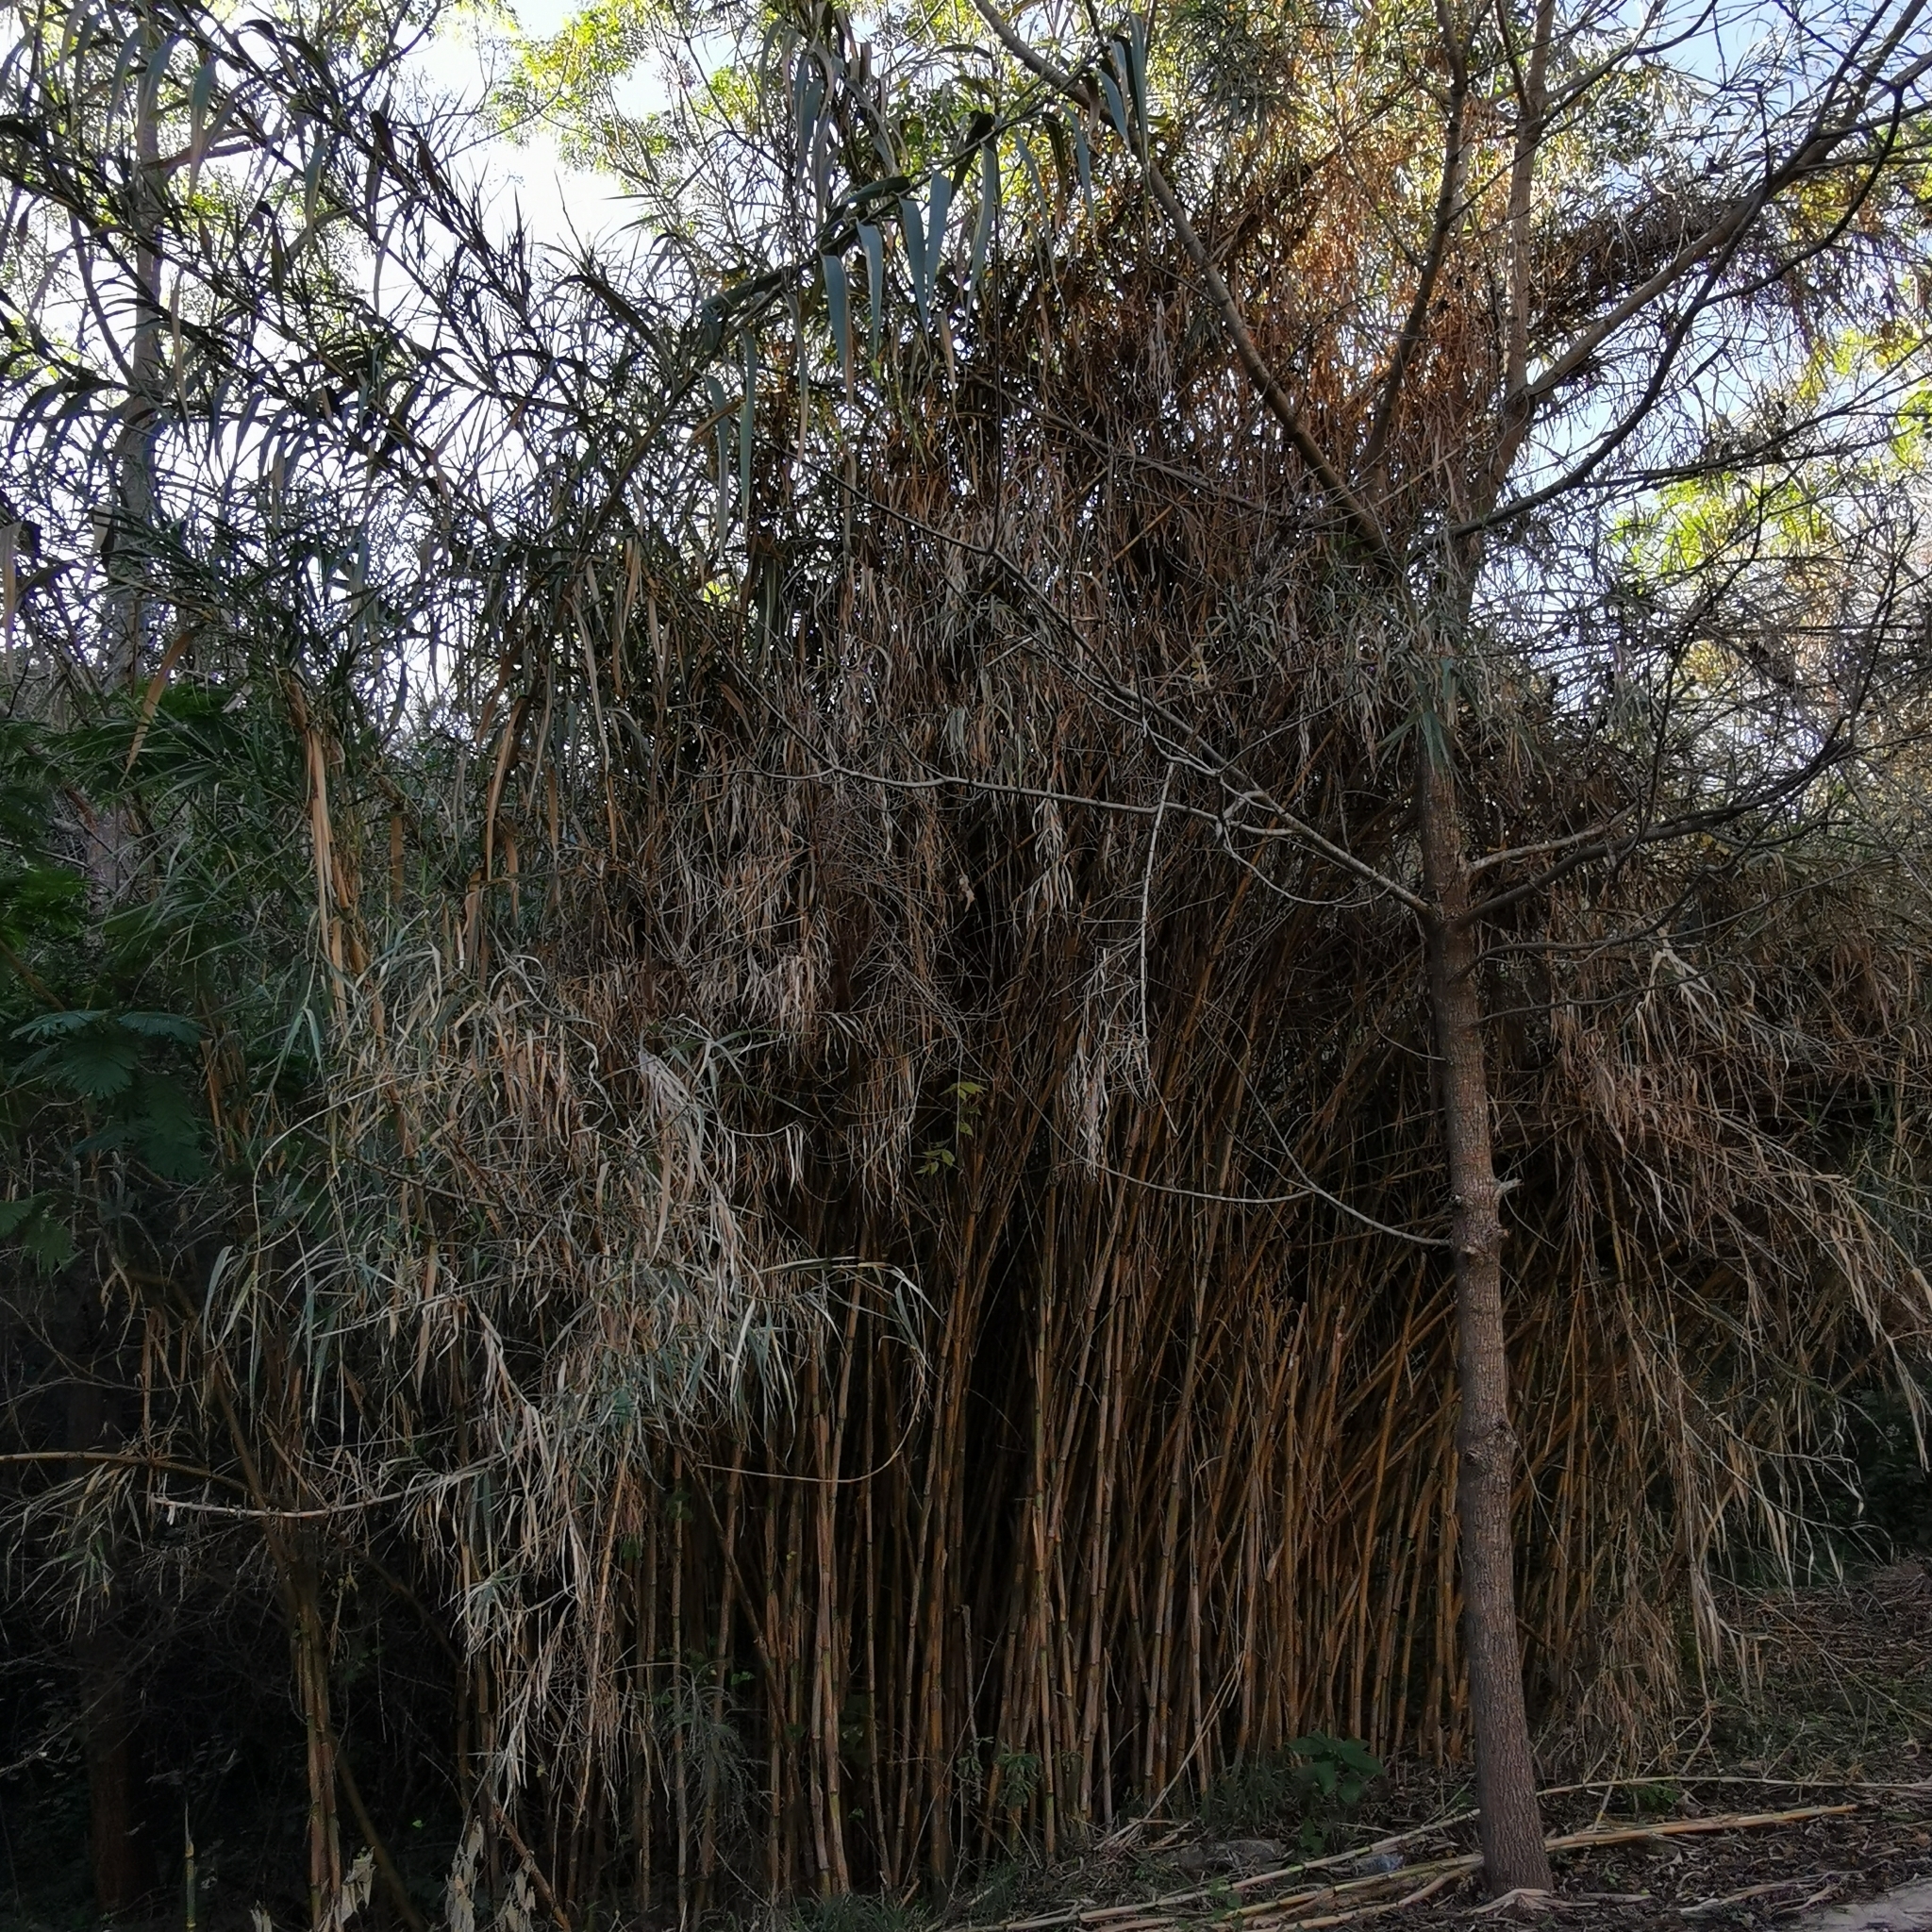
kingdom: Plantae
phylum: Tracheophyta
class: Liliopsida
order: Poales
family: Poaceae
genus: Arundo
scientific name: Arundo donax
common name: Giant reed
